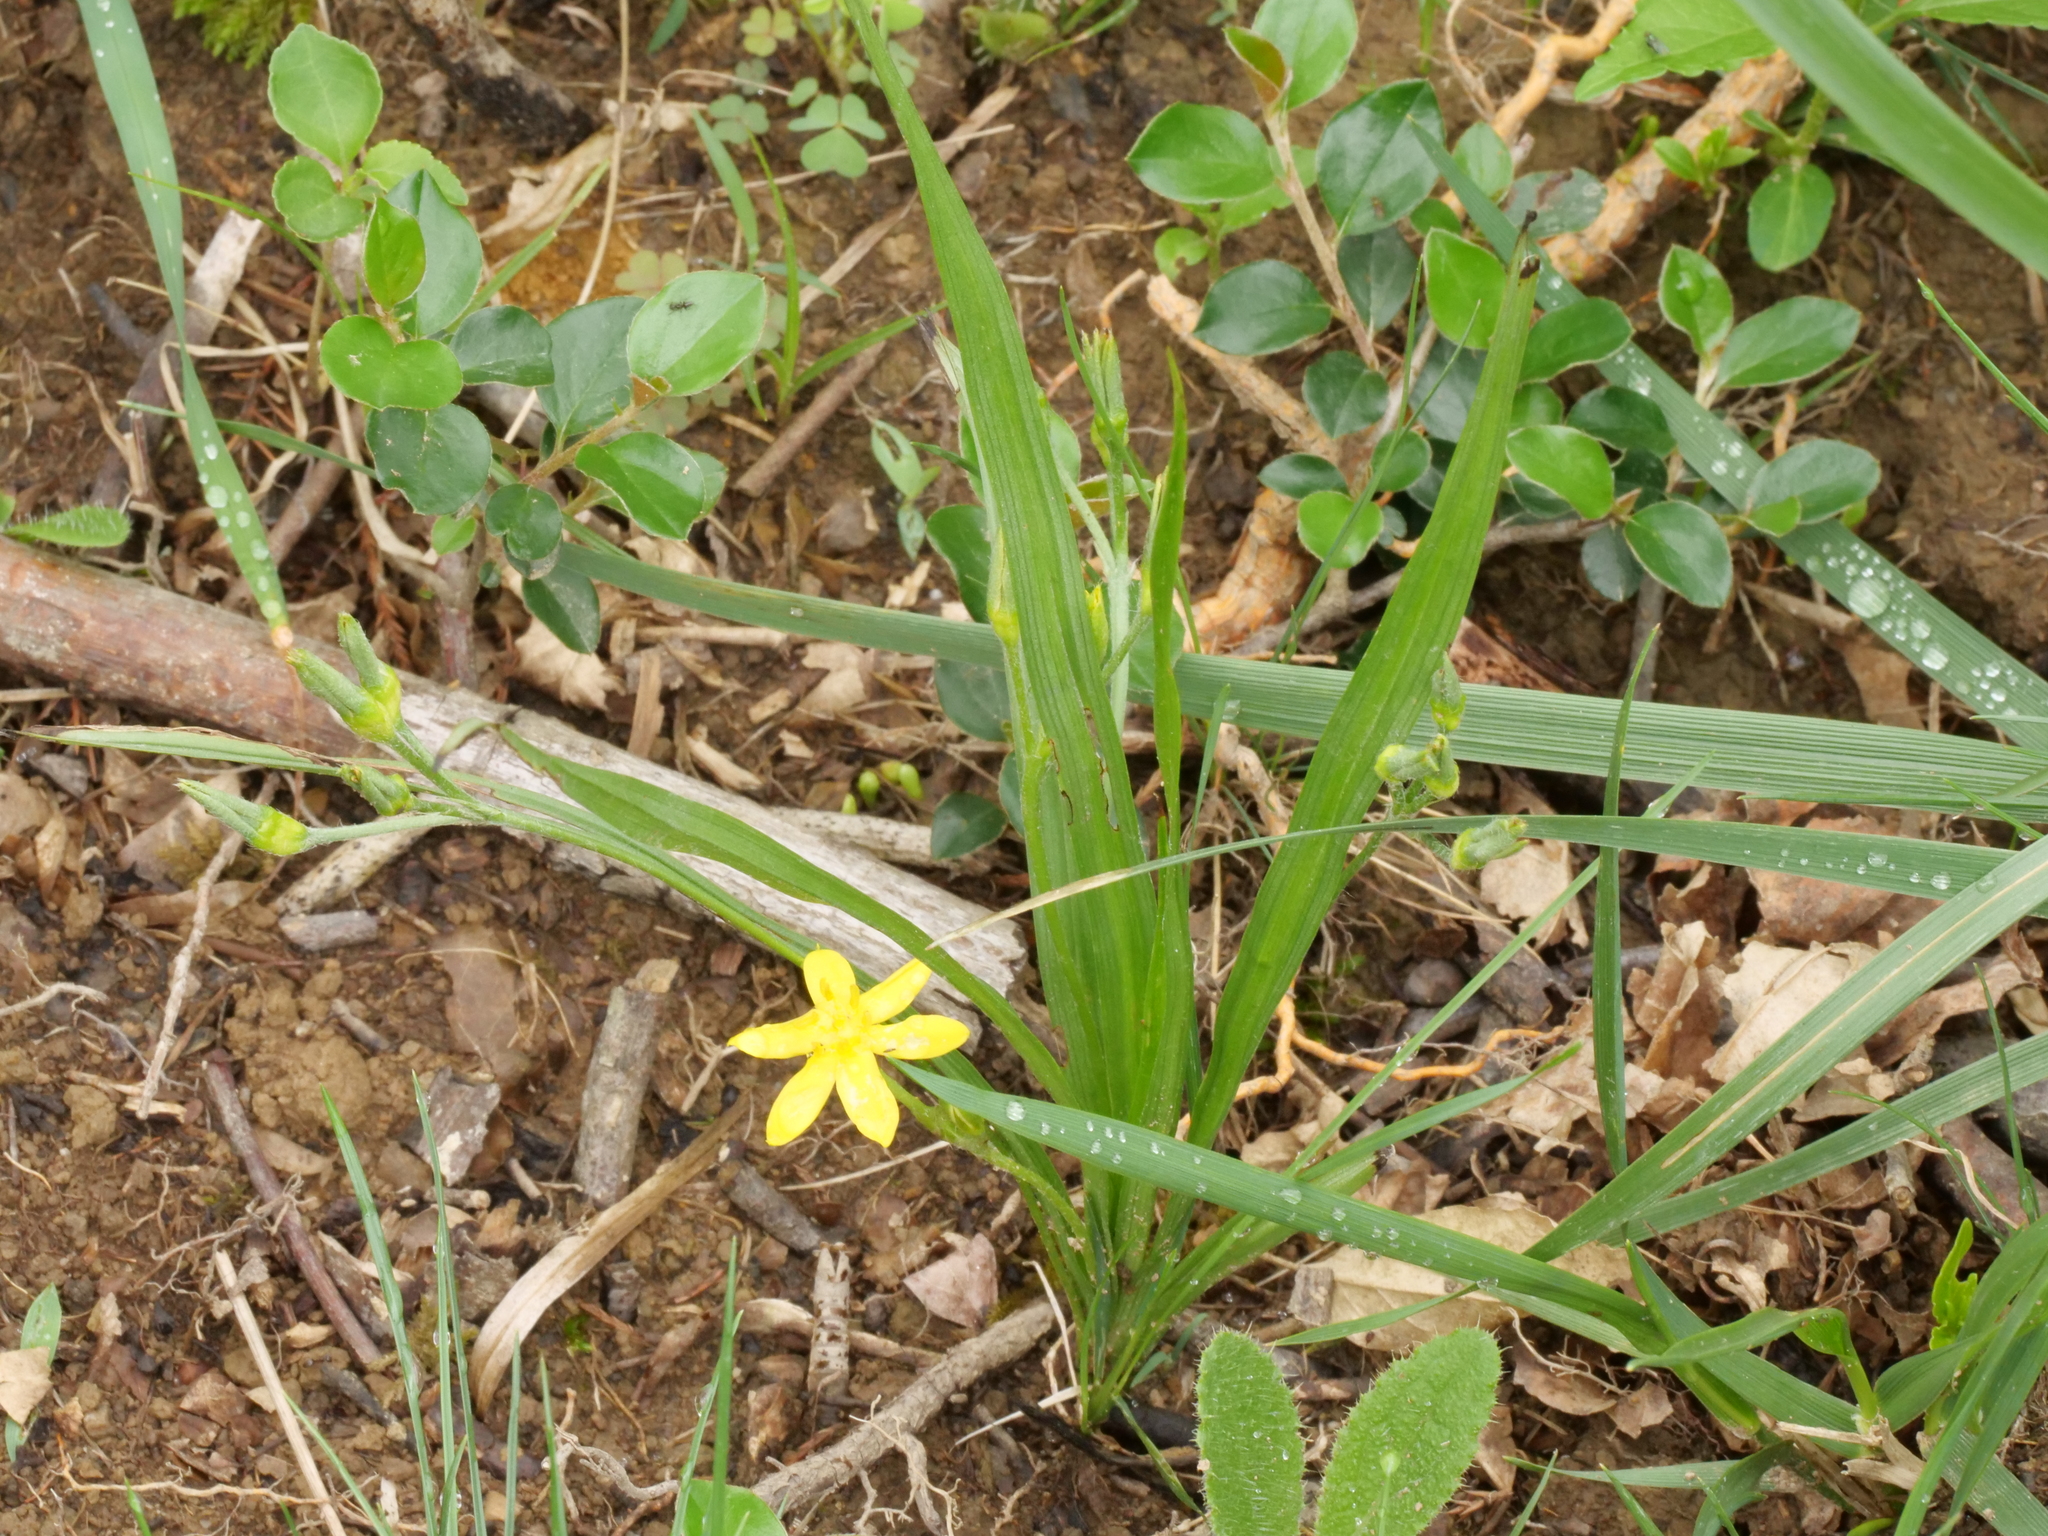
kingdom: Plantae
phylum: Tracheophyta
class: Liliopsida
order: Asparagales
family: Hypoxidaceae
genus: Hypoxis
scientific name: Hypoxis hirsuta
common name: Common goldstar
